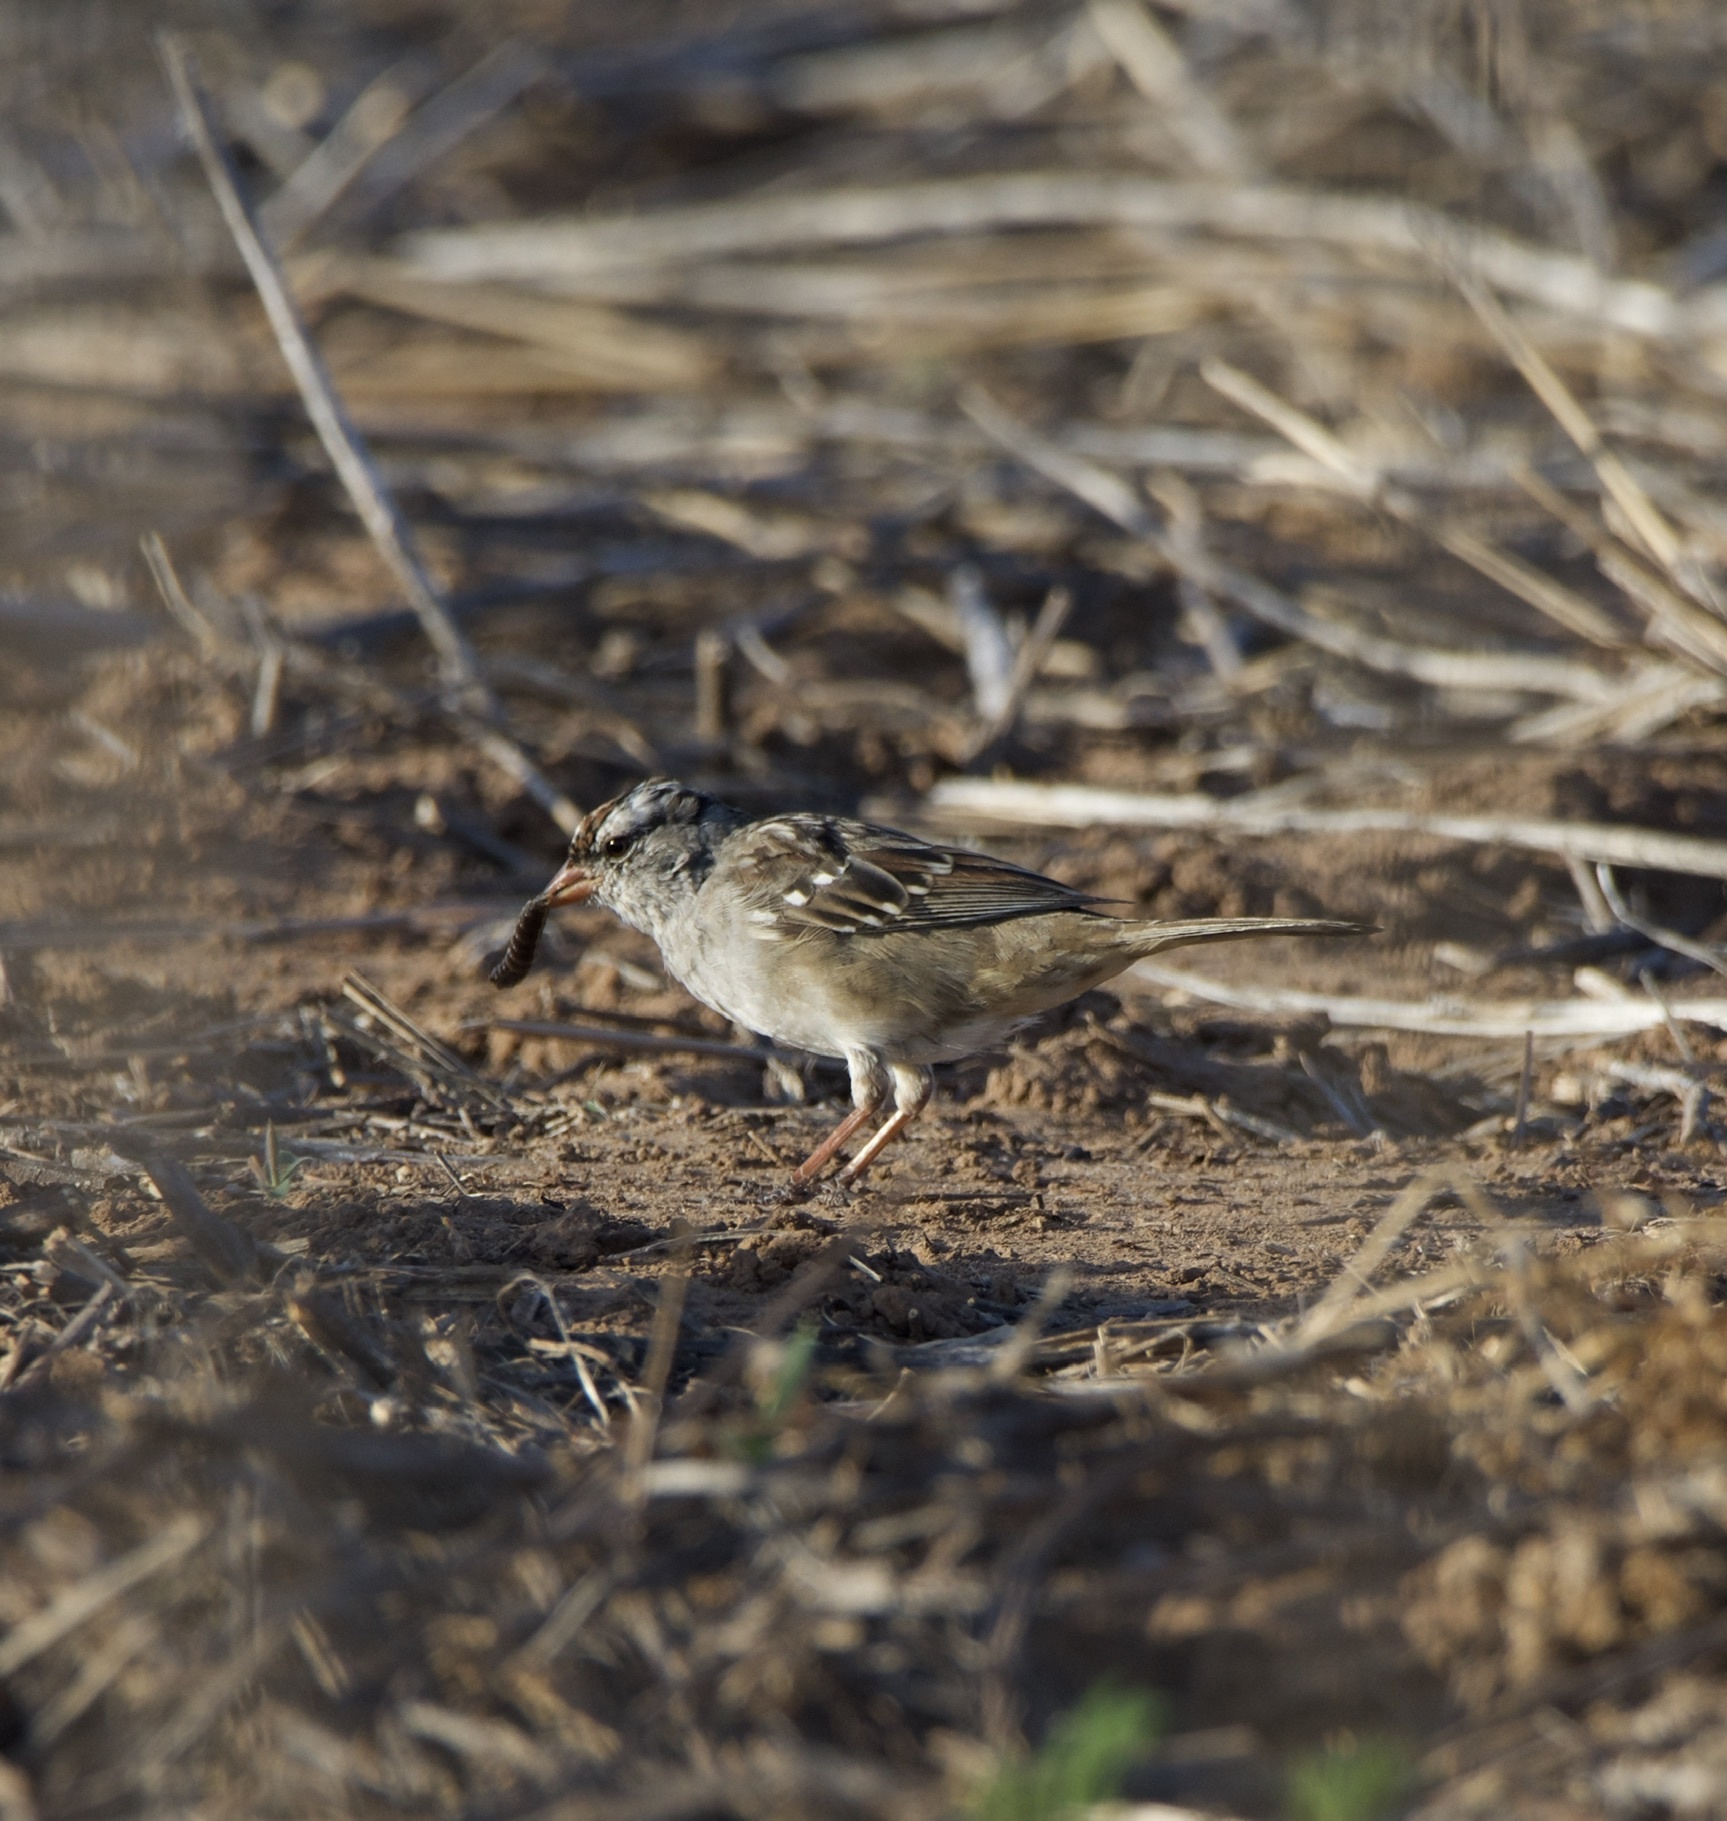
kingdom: Animalia
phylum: Chordata
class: Aves
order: Passeriformes
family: Passerellidae
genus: Zonotrichia
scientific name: Zonotrichia leucophrys
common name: White-crowned sparrow
